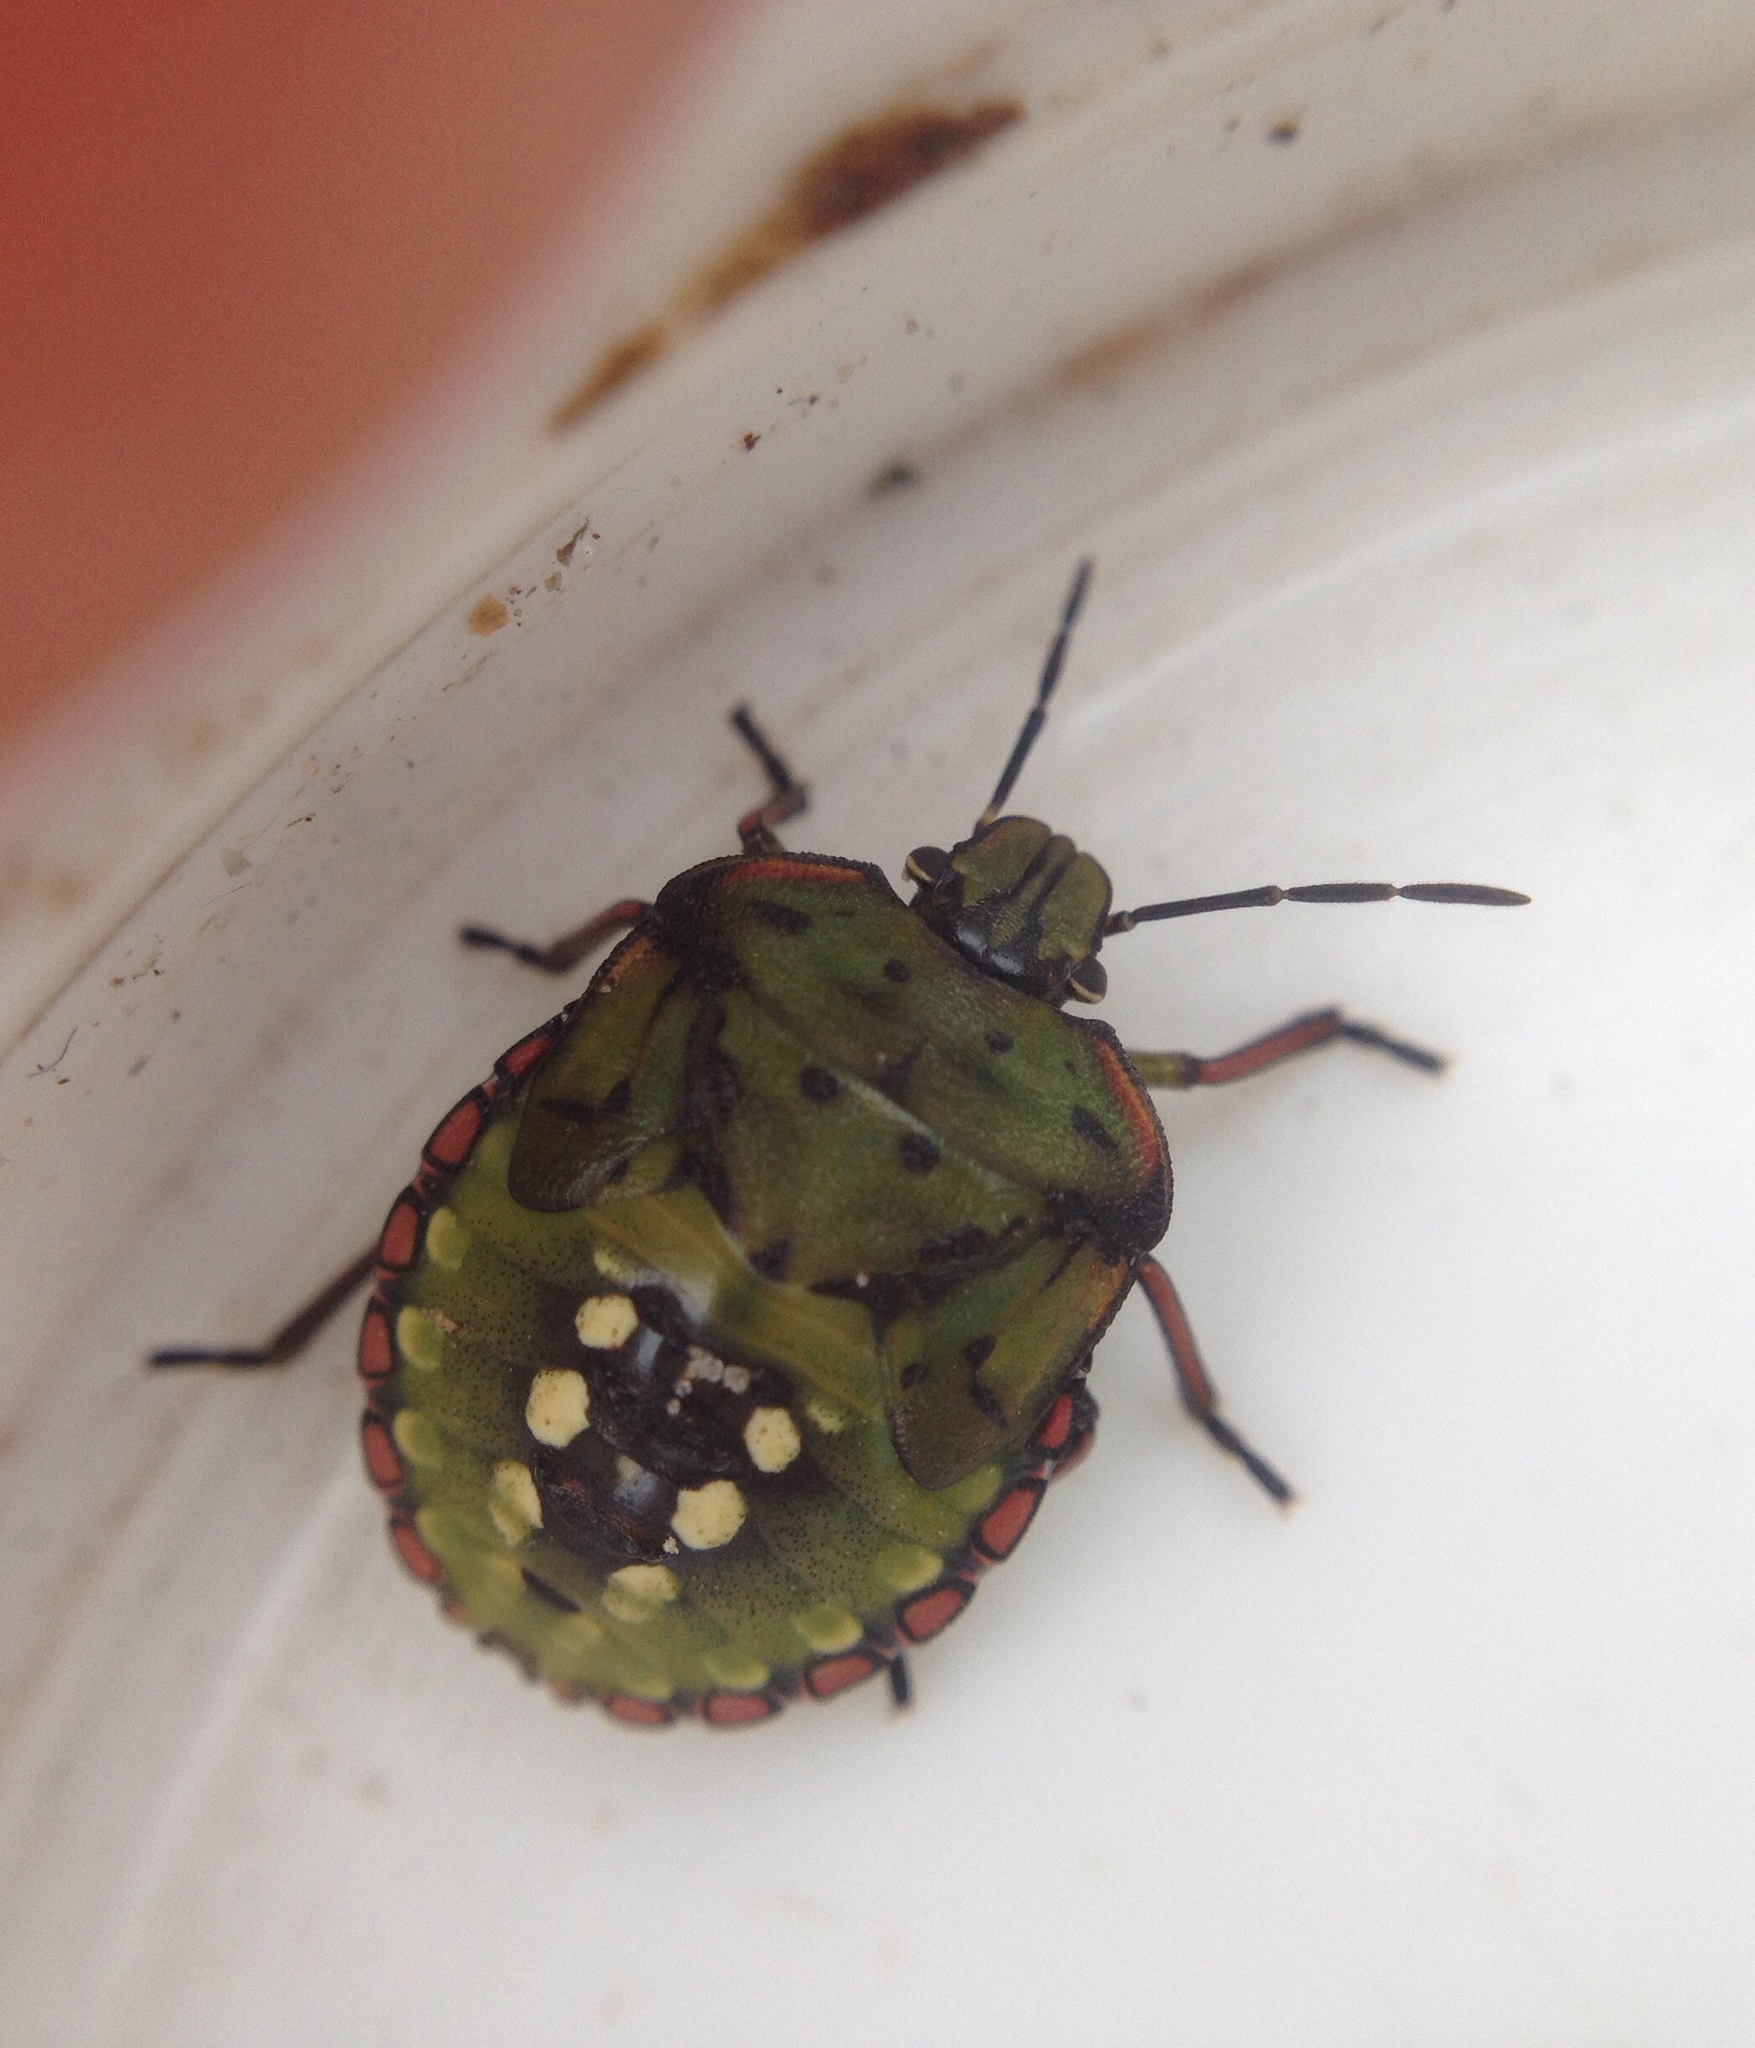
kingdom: Animalia
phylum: Arthropoda
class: Insecta
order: Hemiptera
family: Pentatomidae
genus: Nezara
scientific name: Nezara viridula
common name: Southern green stink bug
